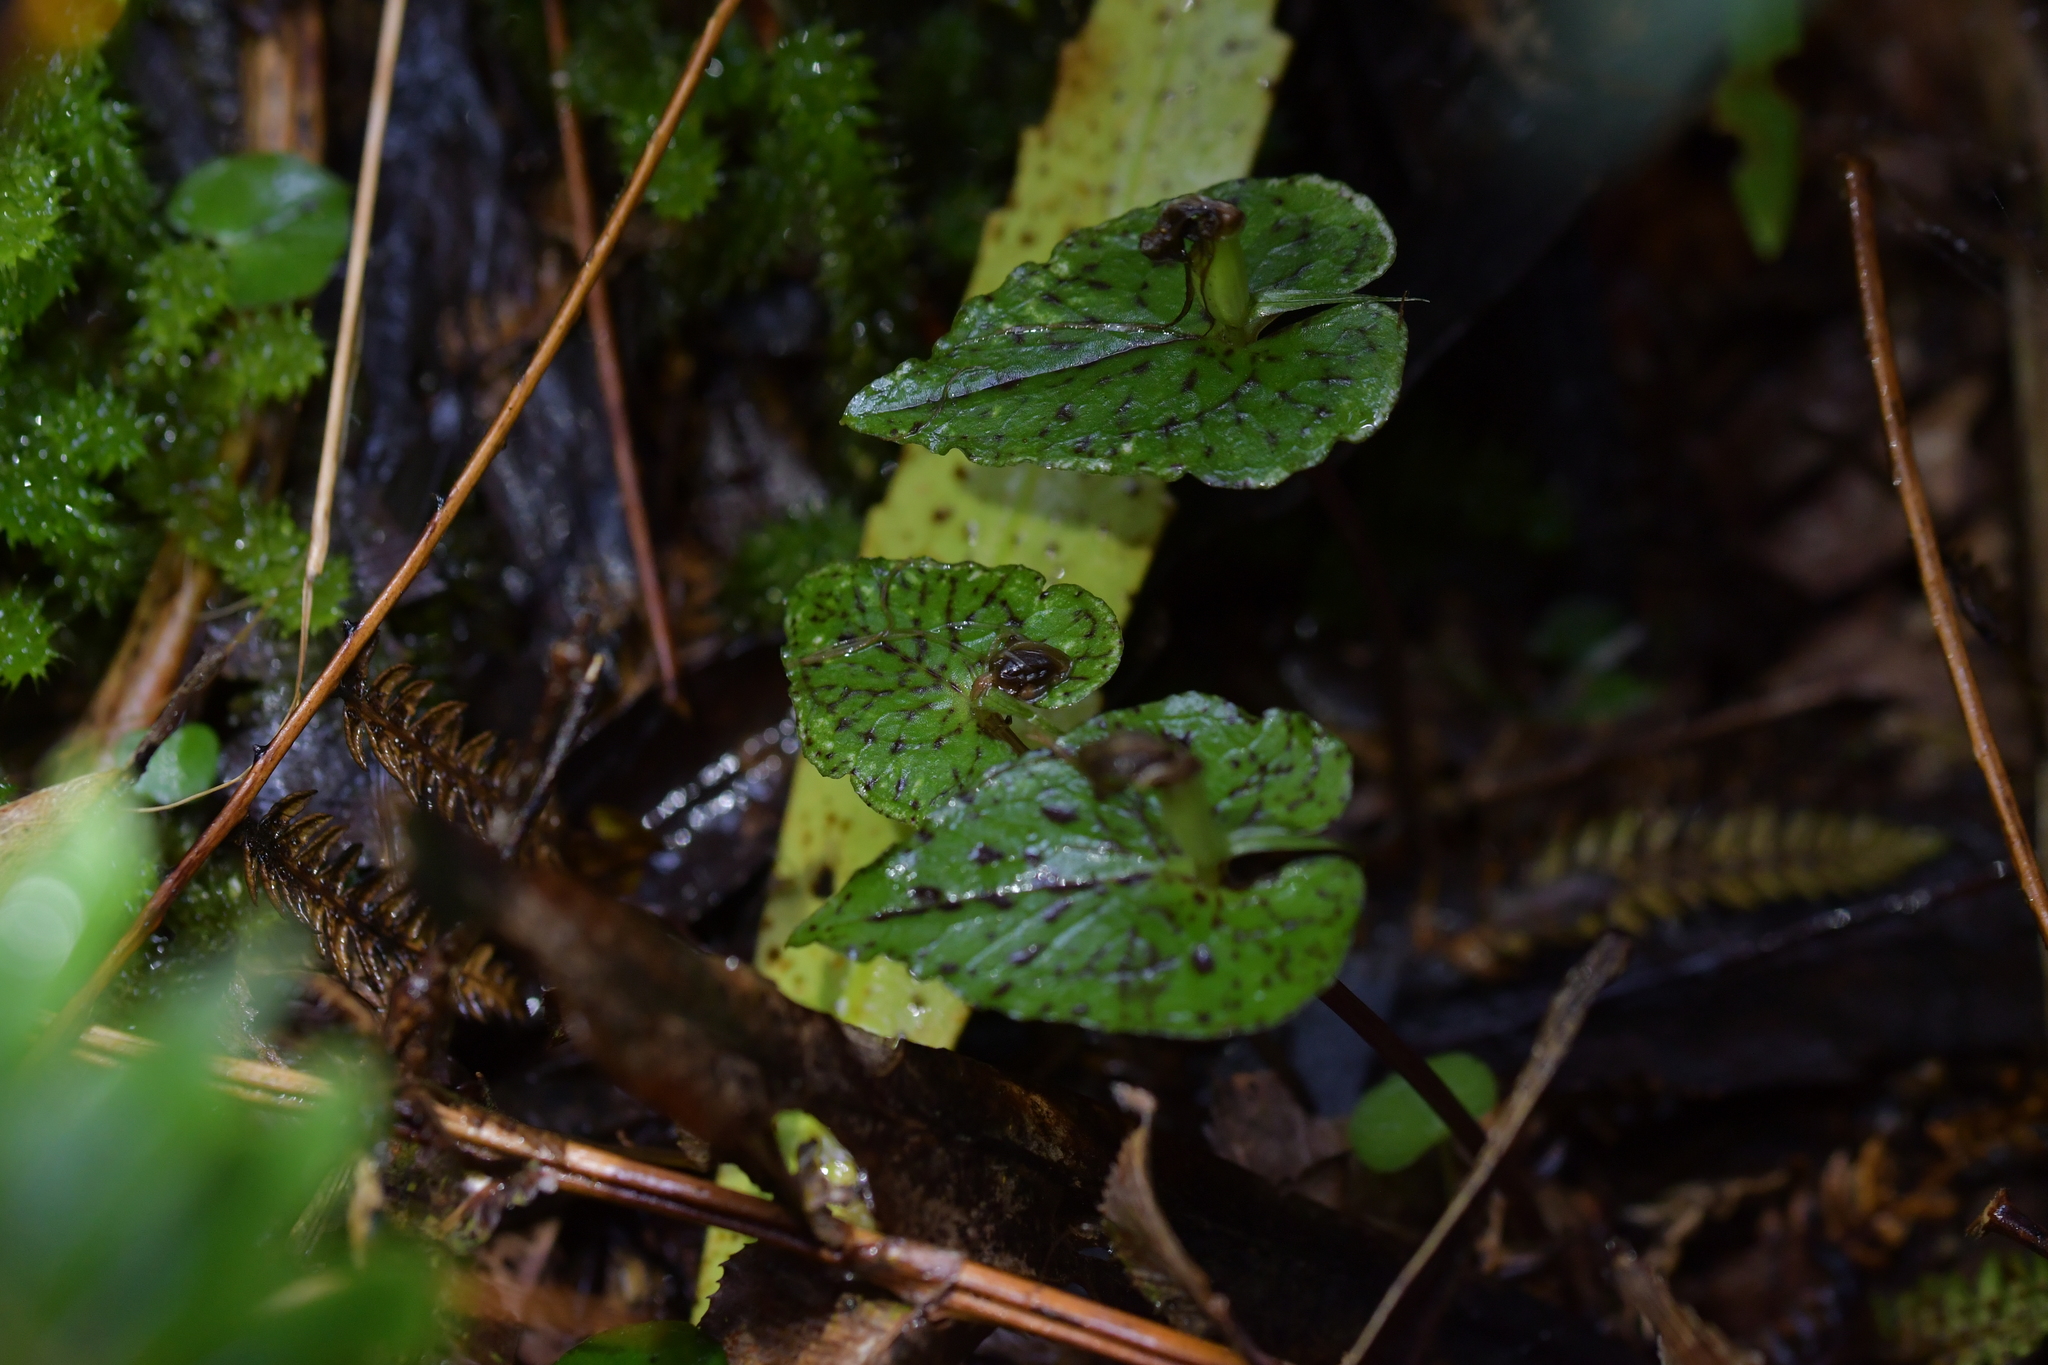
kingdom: Plantae
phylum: Tracheophyta
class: Liliopsida
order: Asparagales
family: Orchidaceae
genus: Corybas
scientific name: Corybas acuminatus
